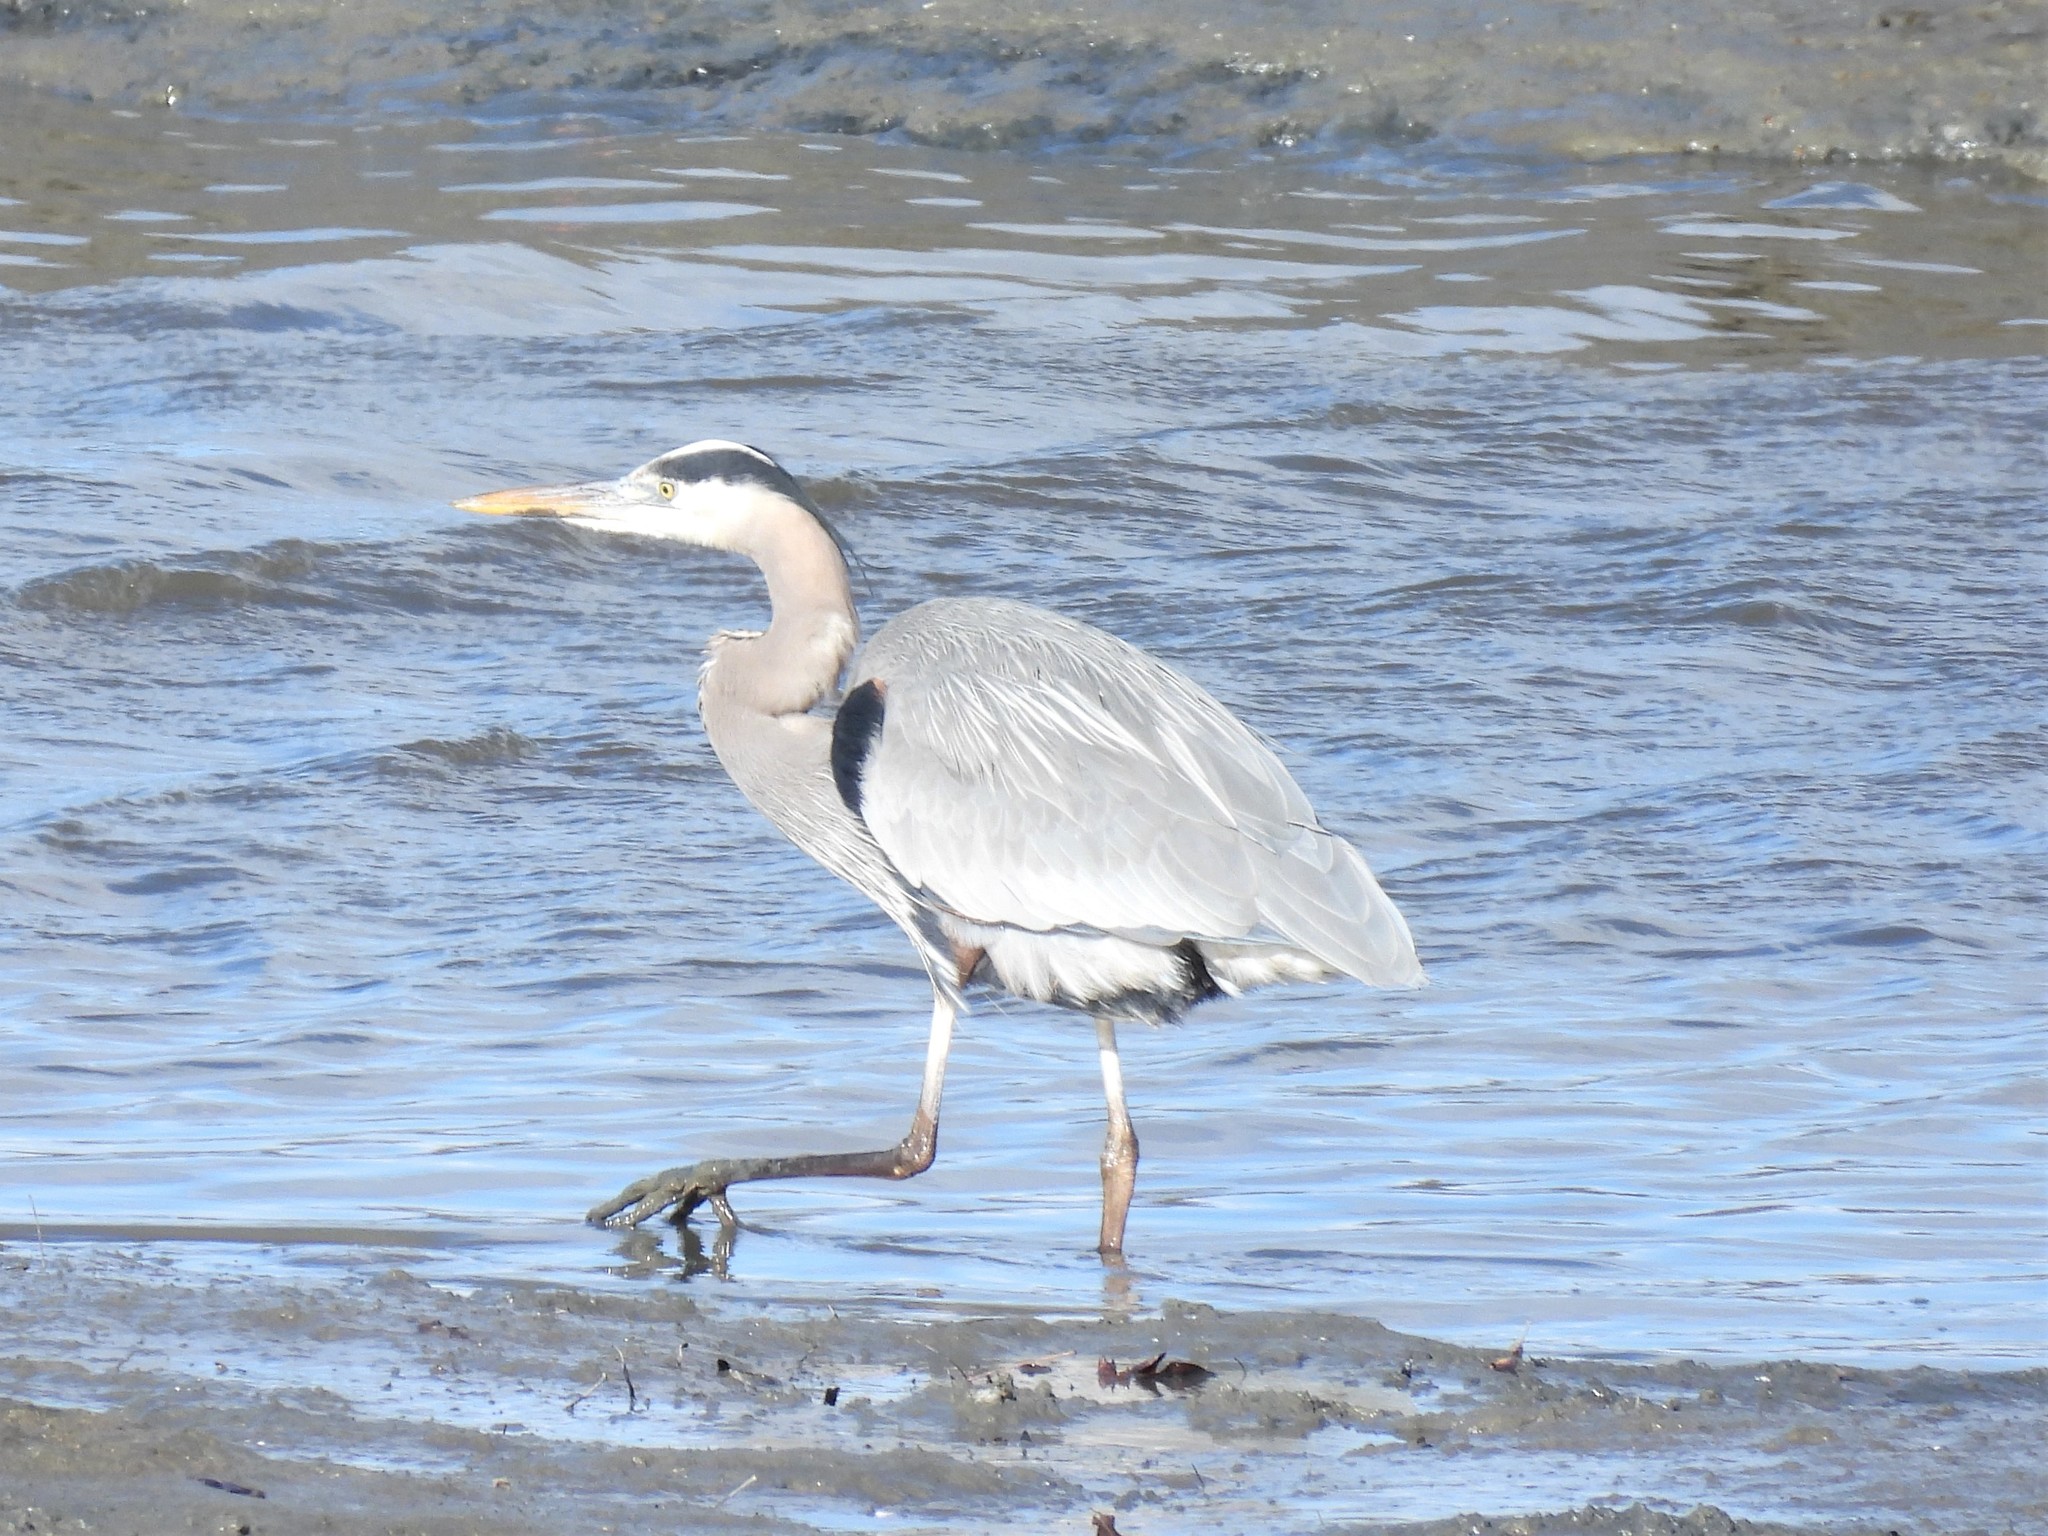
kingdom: Animalia
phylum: Chordata
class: Aves
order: Pelecaniformes
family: Ardeidae
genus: Ardea
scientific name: Ardea herodias
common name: Great blue heron
